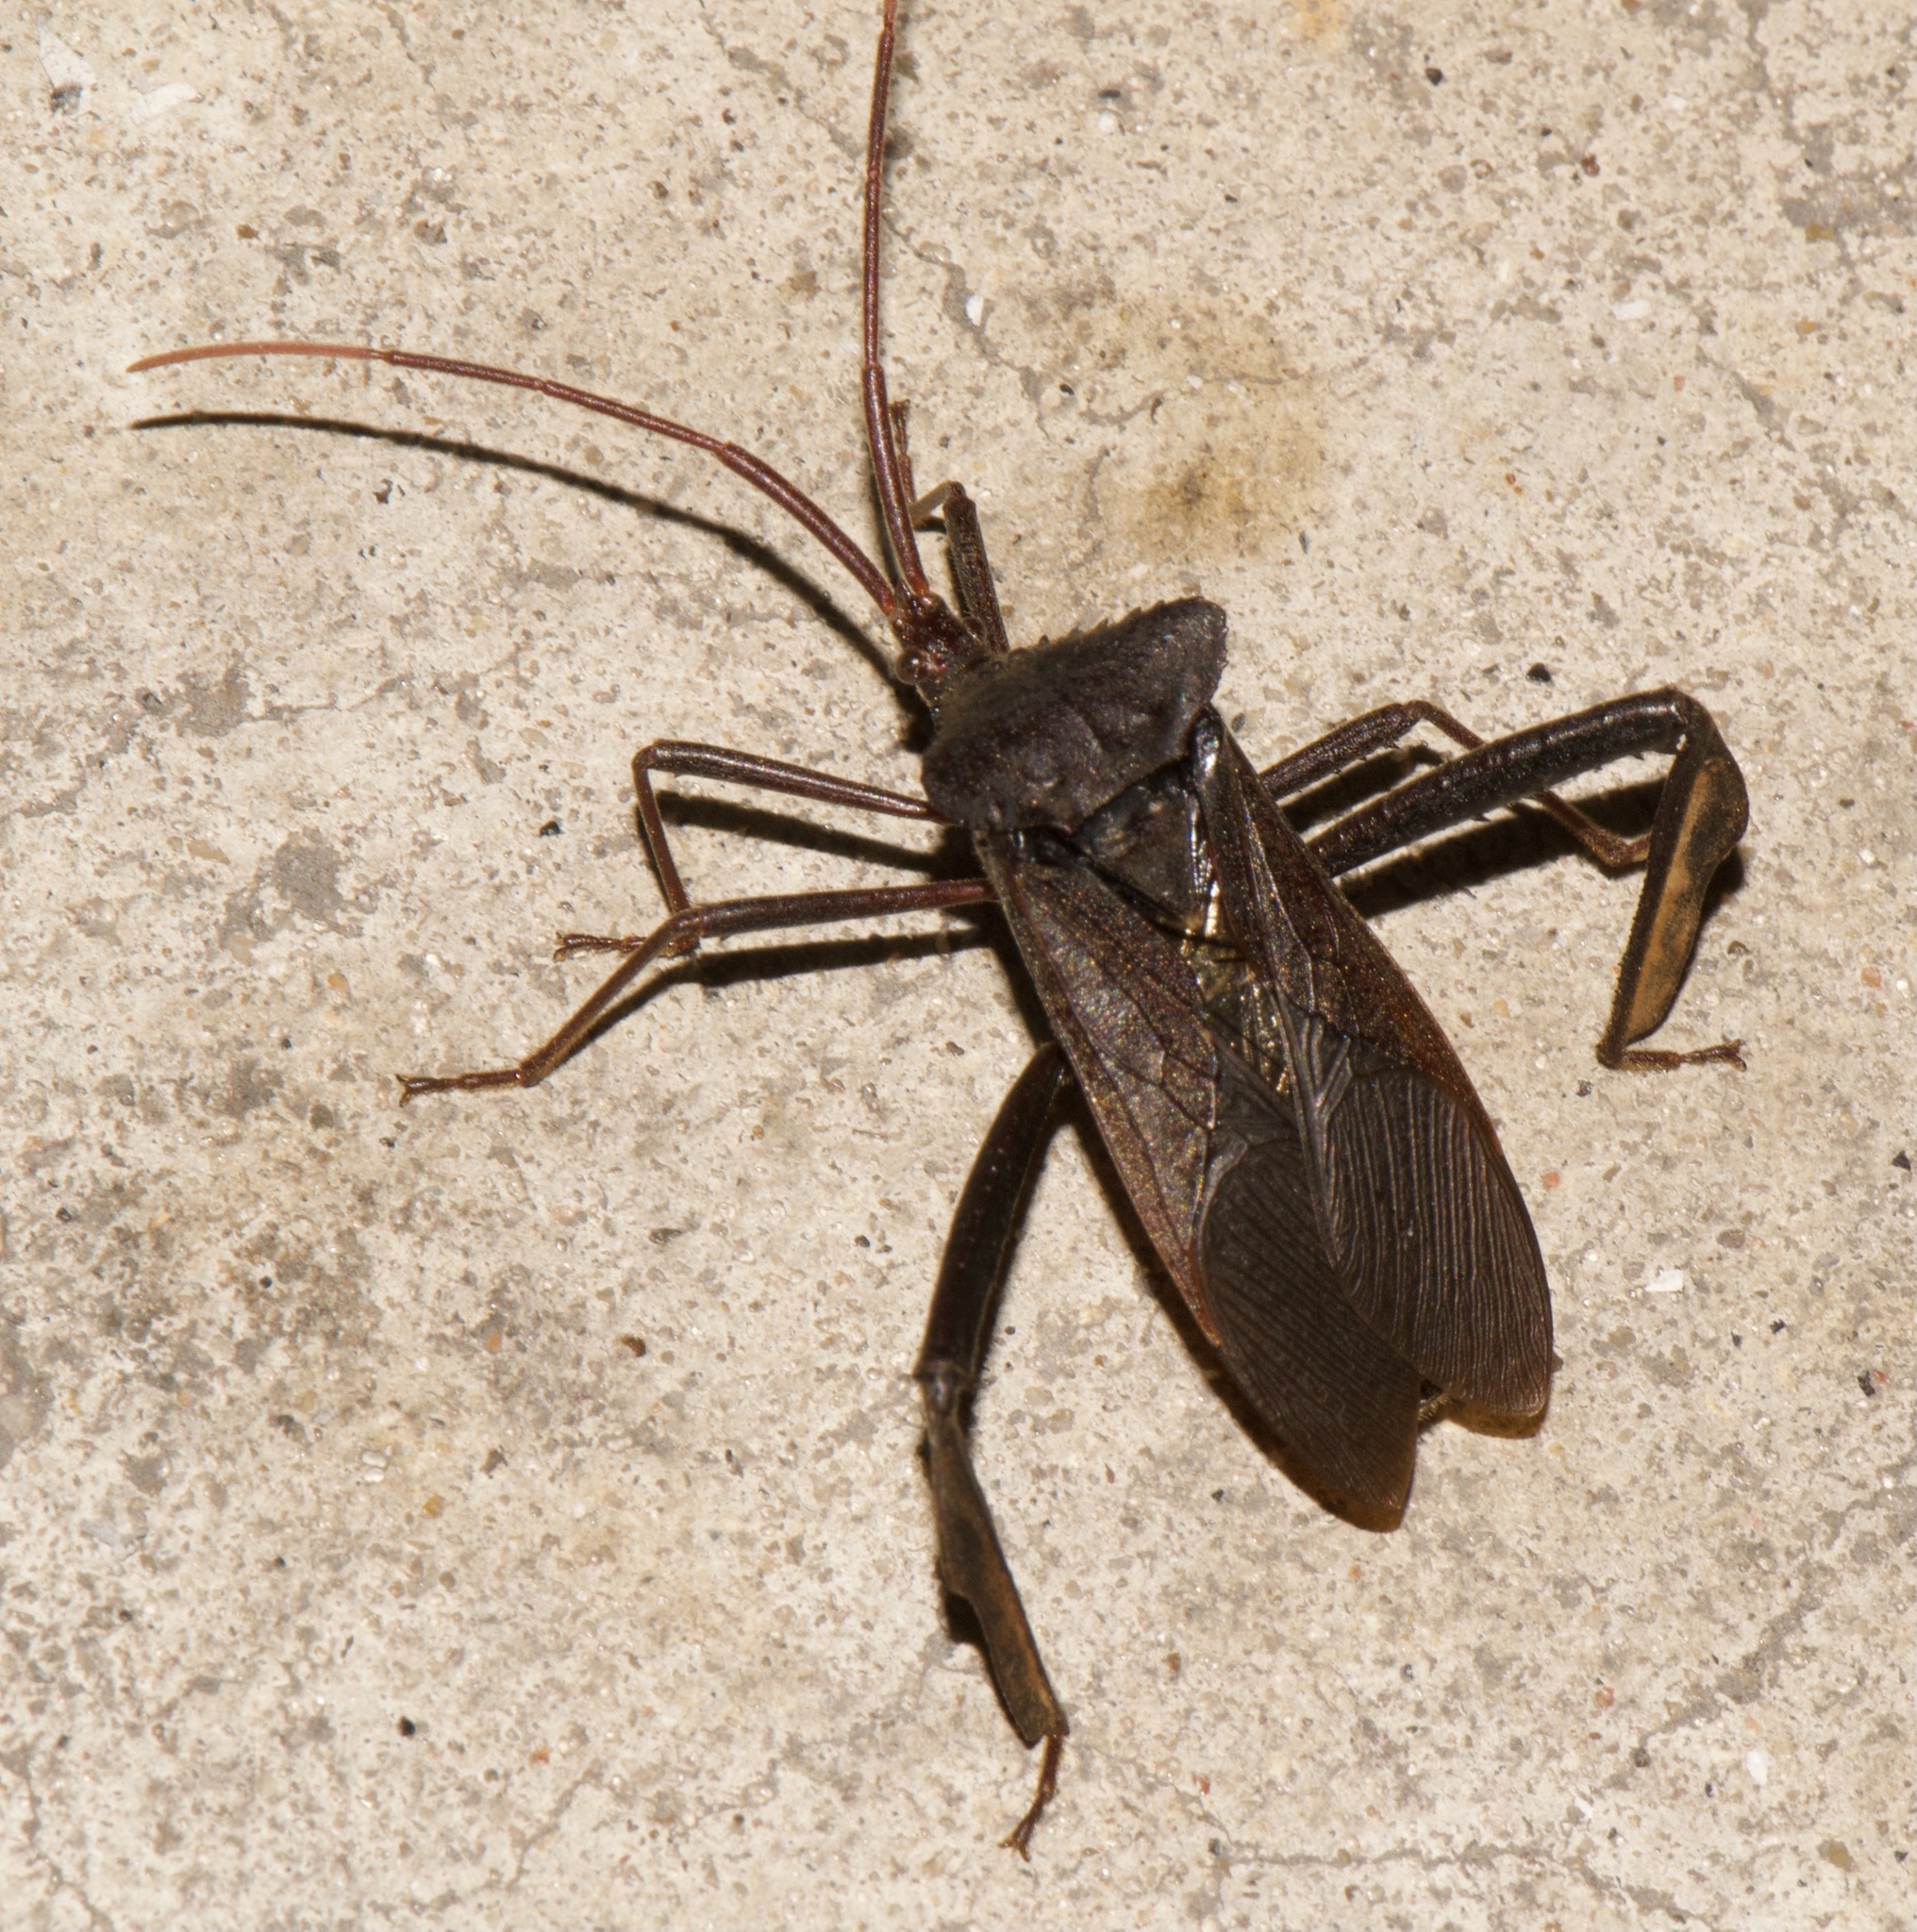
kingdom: Animalia
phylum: Arthropoda
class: Insecta
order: Hemiptera
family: Coreidae
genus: Acanthocephala
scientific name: Acanthocephala declivis
